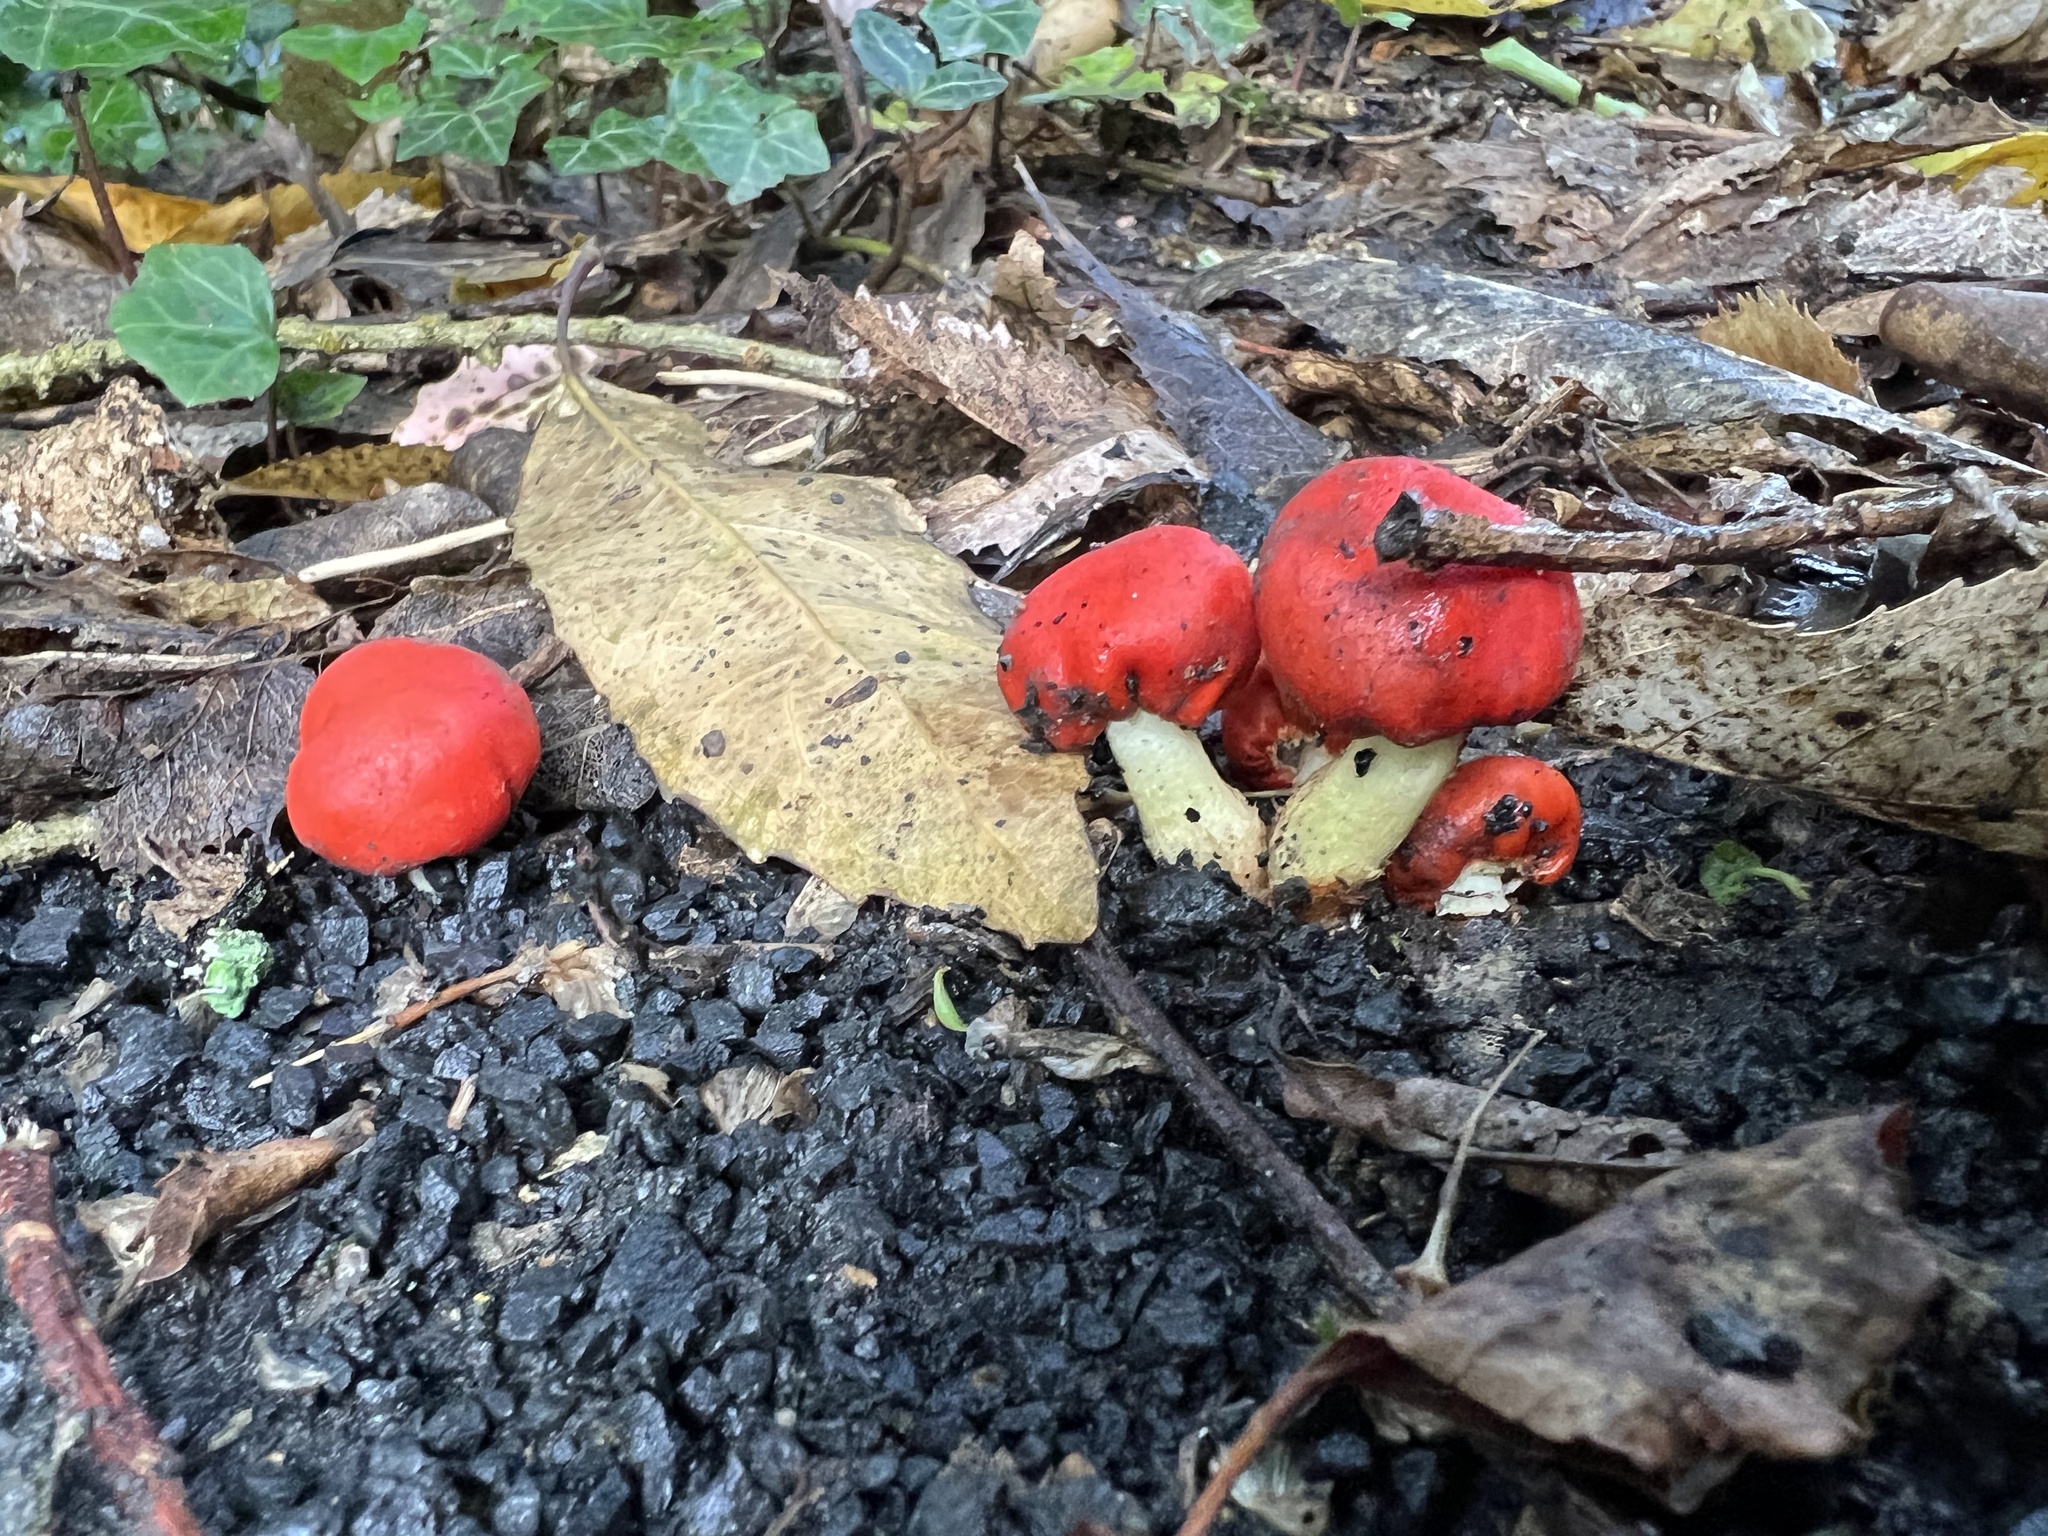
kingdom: Fungi
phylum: Basidiomycota
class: Agaricomycetes
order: Agaricales
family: Strophariaceae
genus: Leratiomyces
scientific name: Leratiomyces erythrocephalus
